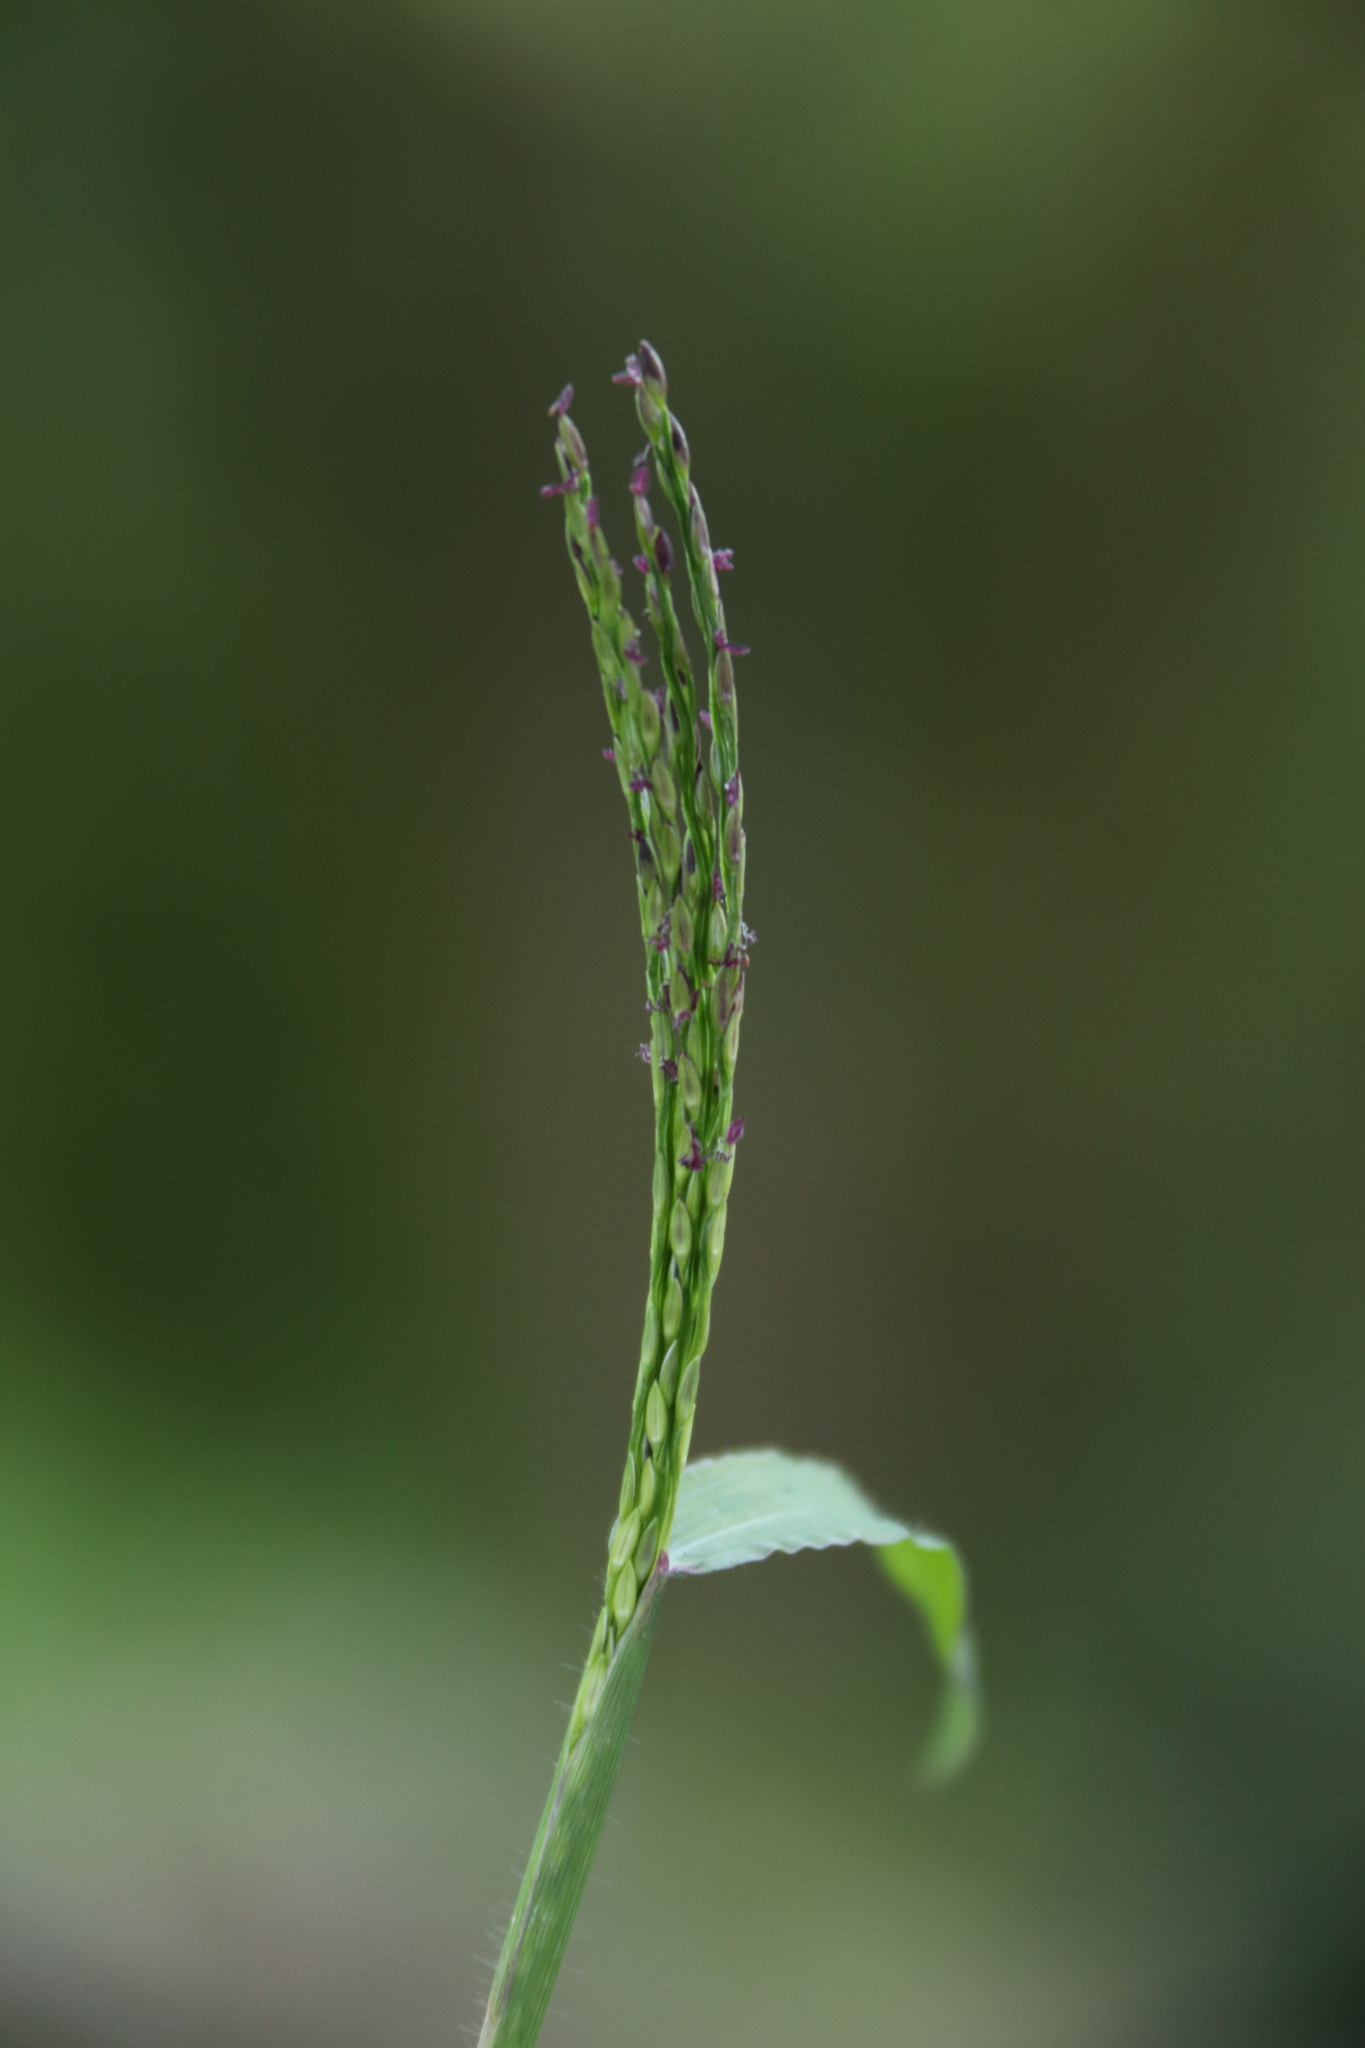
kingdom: Plantae
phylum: Tracheophyta
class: Liliopsida
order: Poales
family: Poaceae
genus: Digitaria
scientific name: Digitaria sanguinalis
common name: Hairy crabgrass
